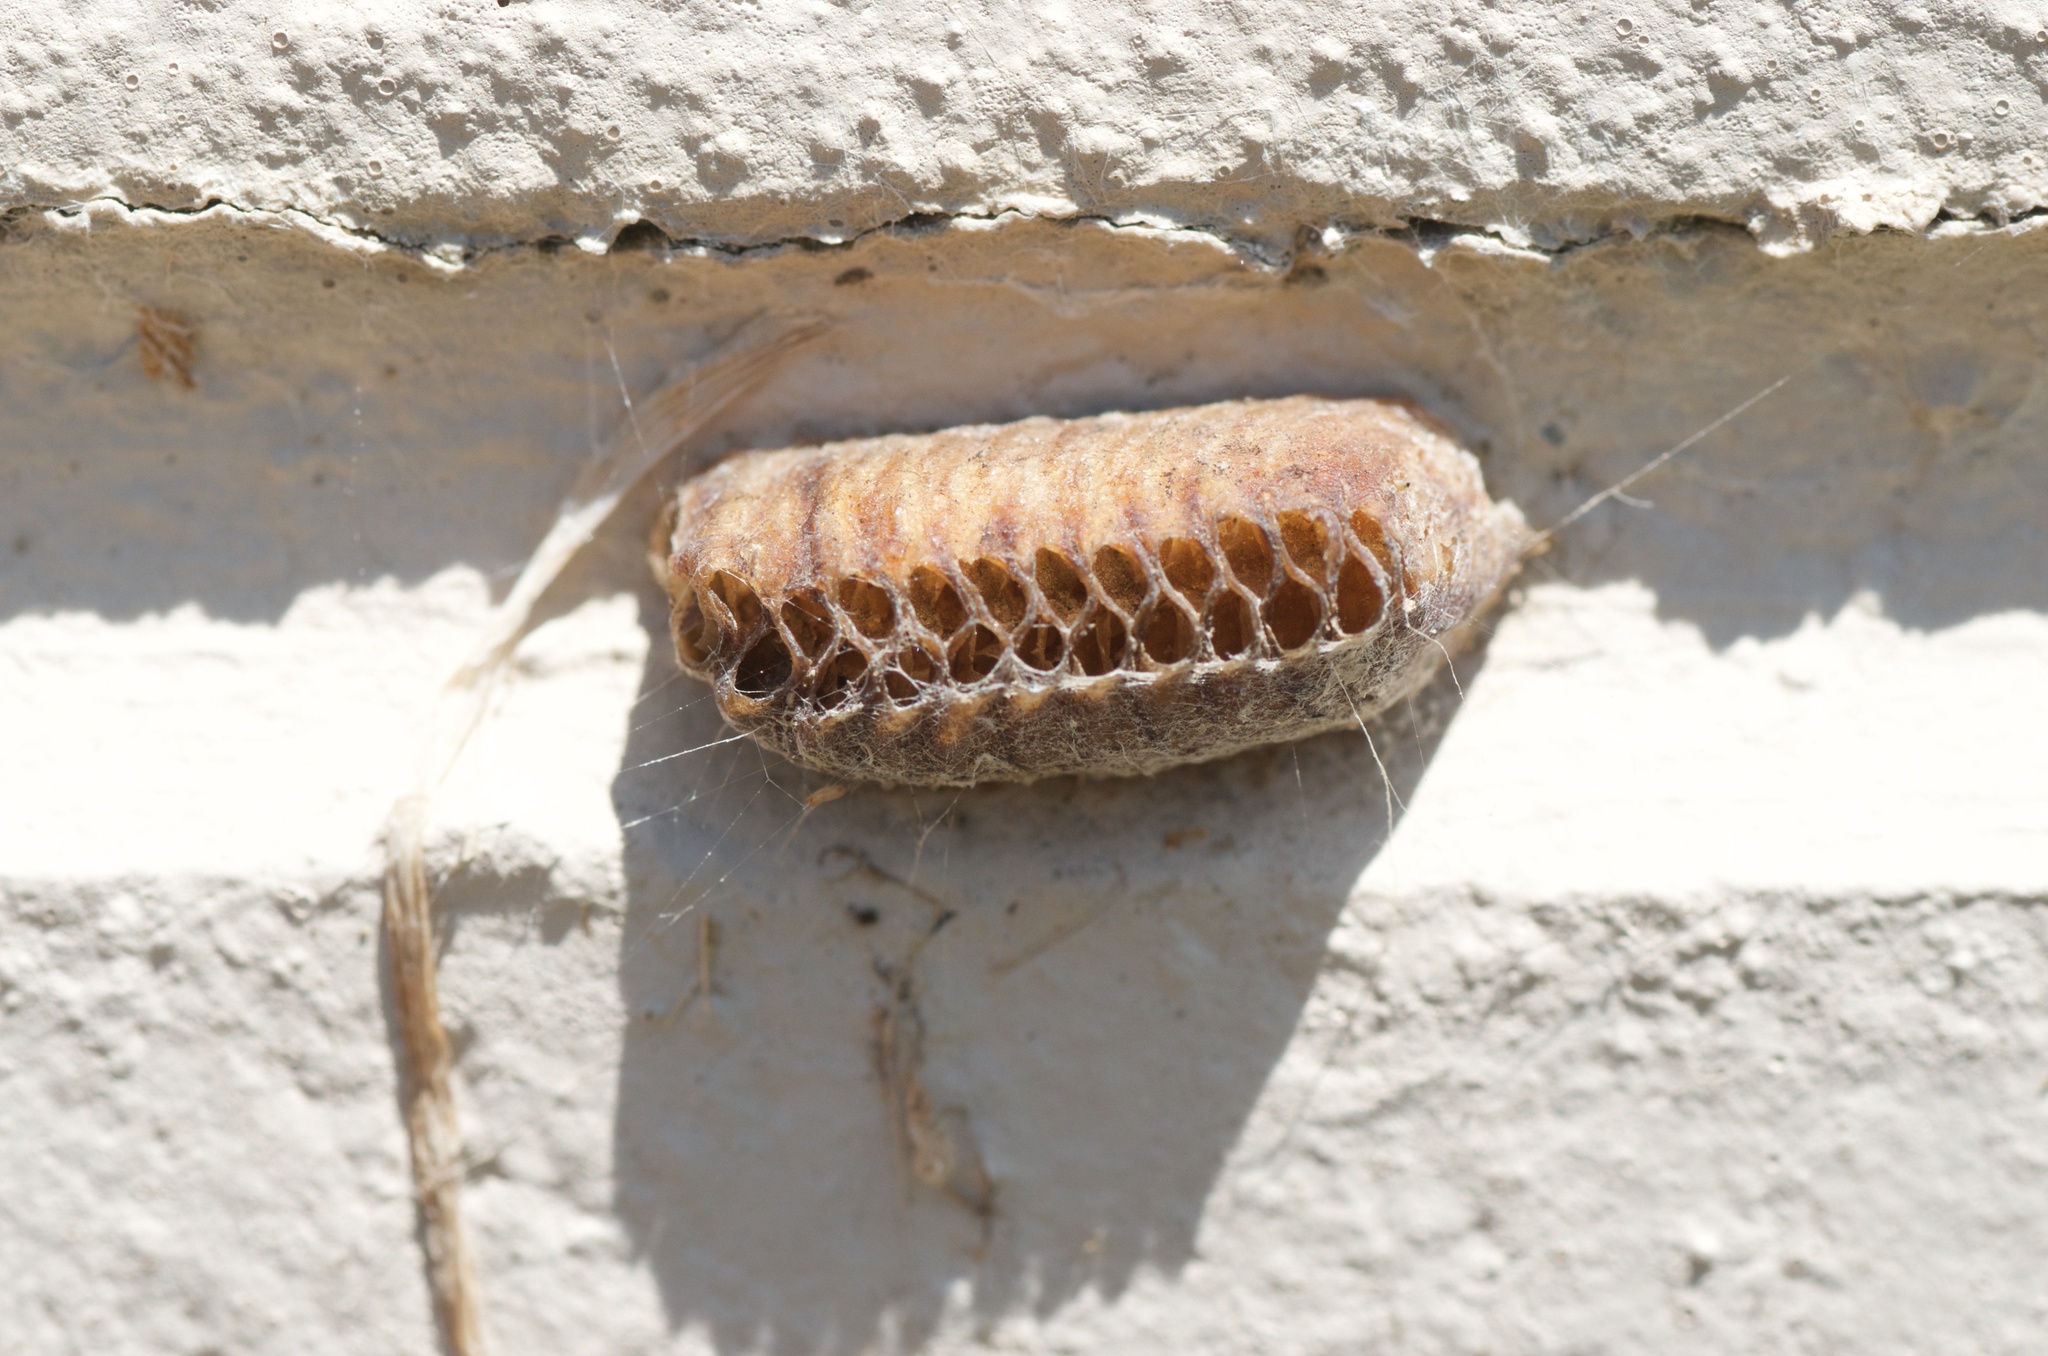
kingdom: Animalia
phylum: Arthropoda
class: Insecta
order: Mantodea
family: Mantidae
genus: Orthodera
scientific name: Orthodera novaezealandiae
